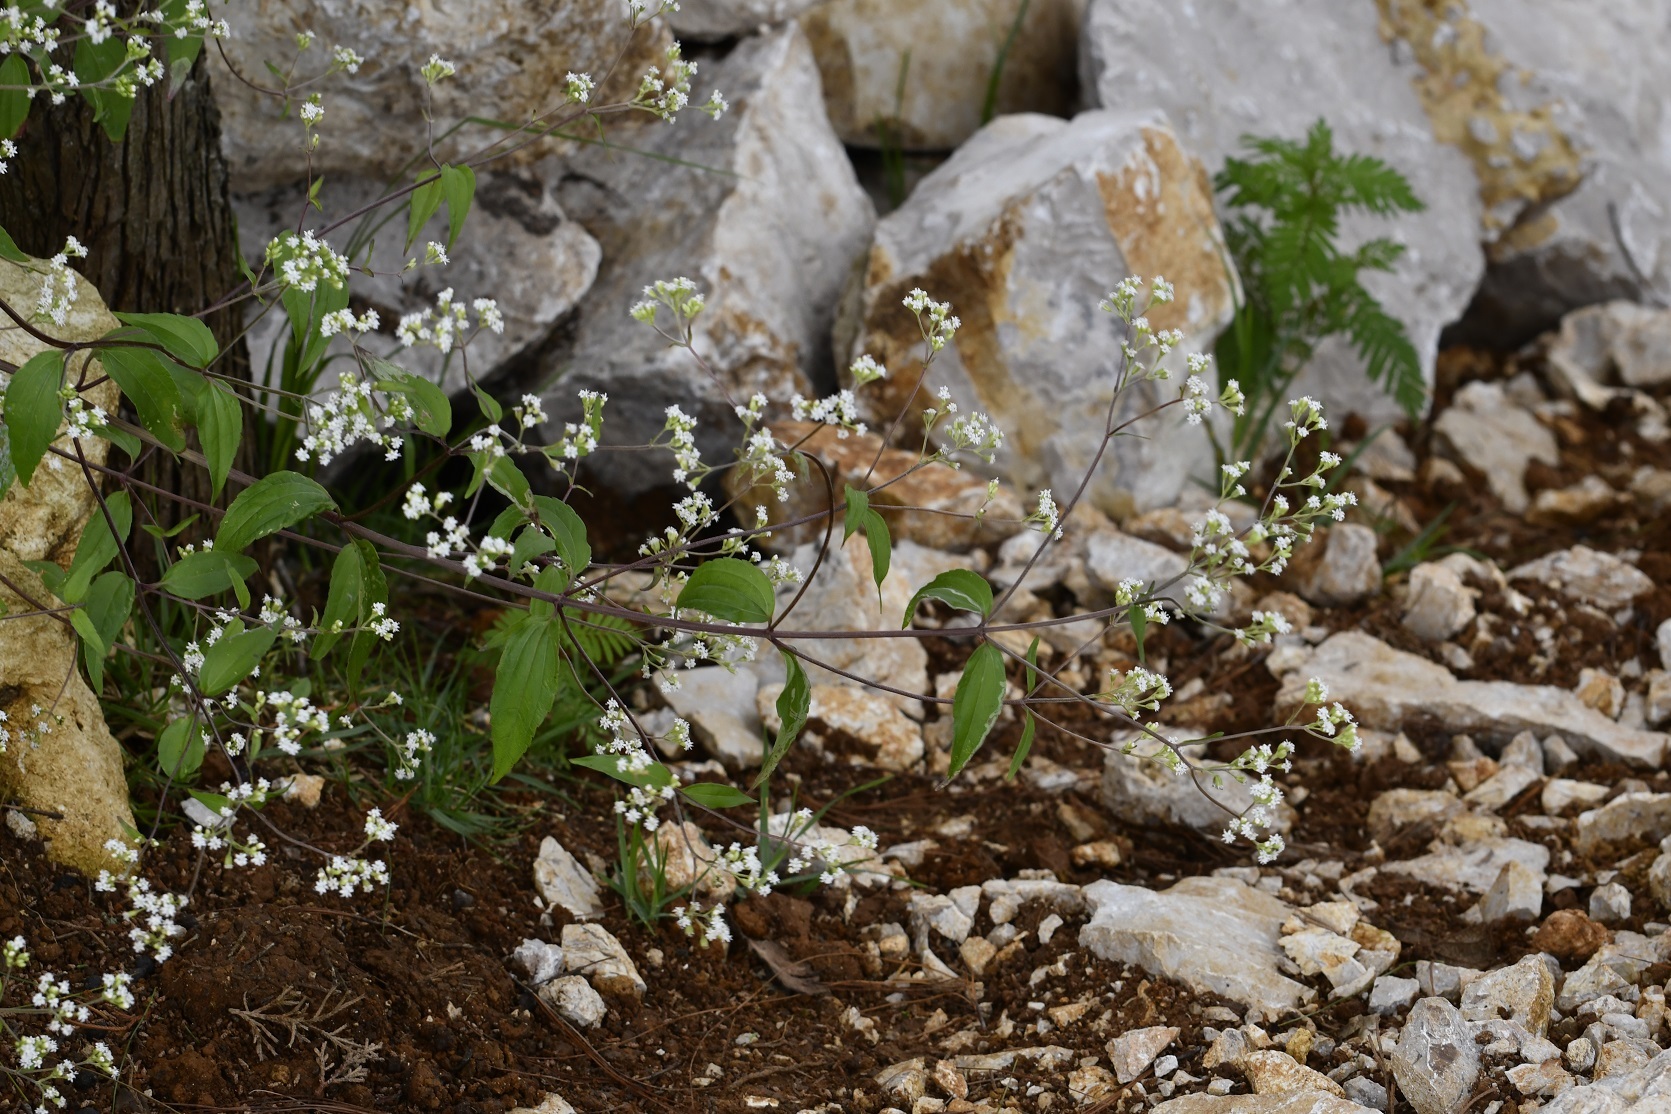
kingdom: Plantae
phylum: Tracheophyta
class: Magnoliopsida
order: Asterales
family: Asteraceae
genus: Piqueria
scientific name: Piqueria trinervia
